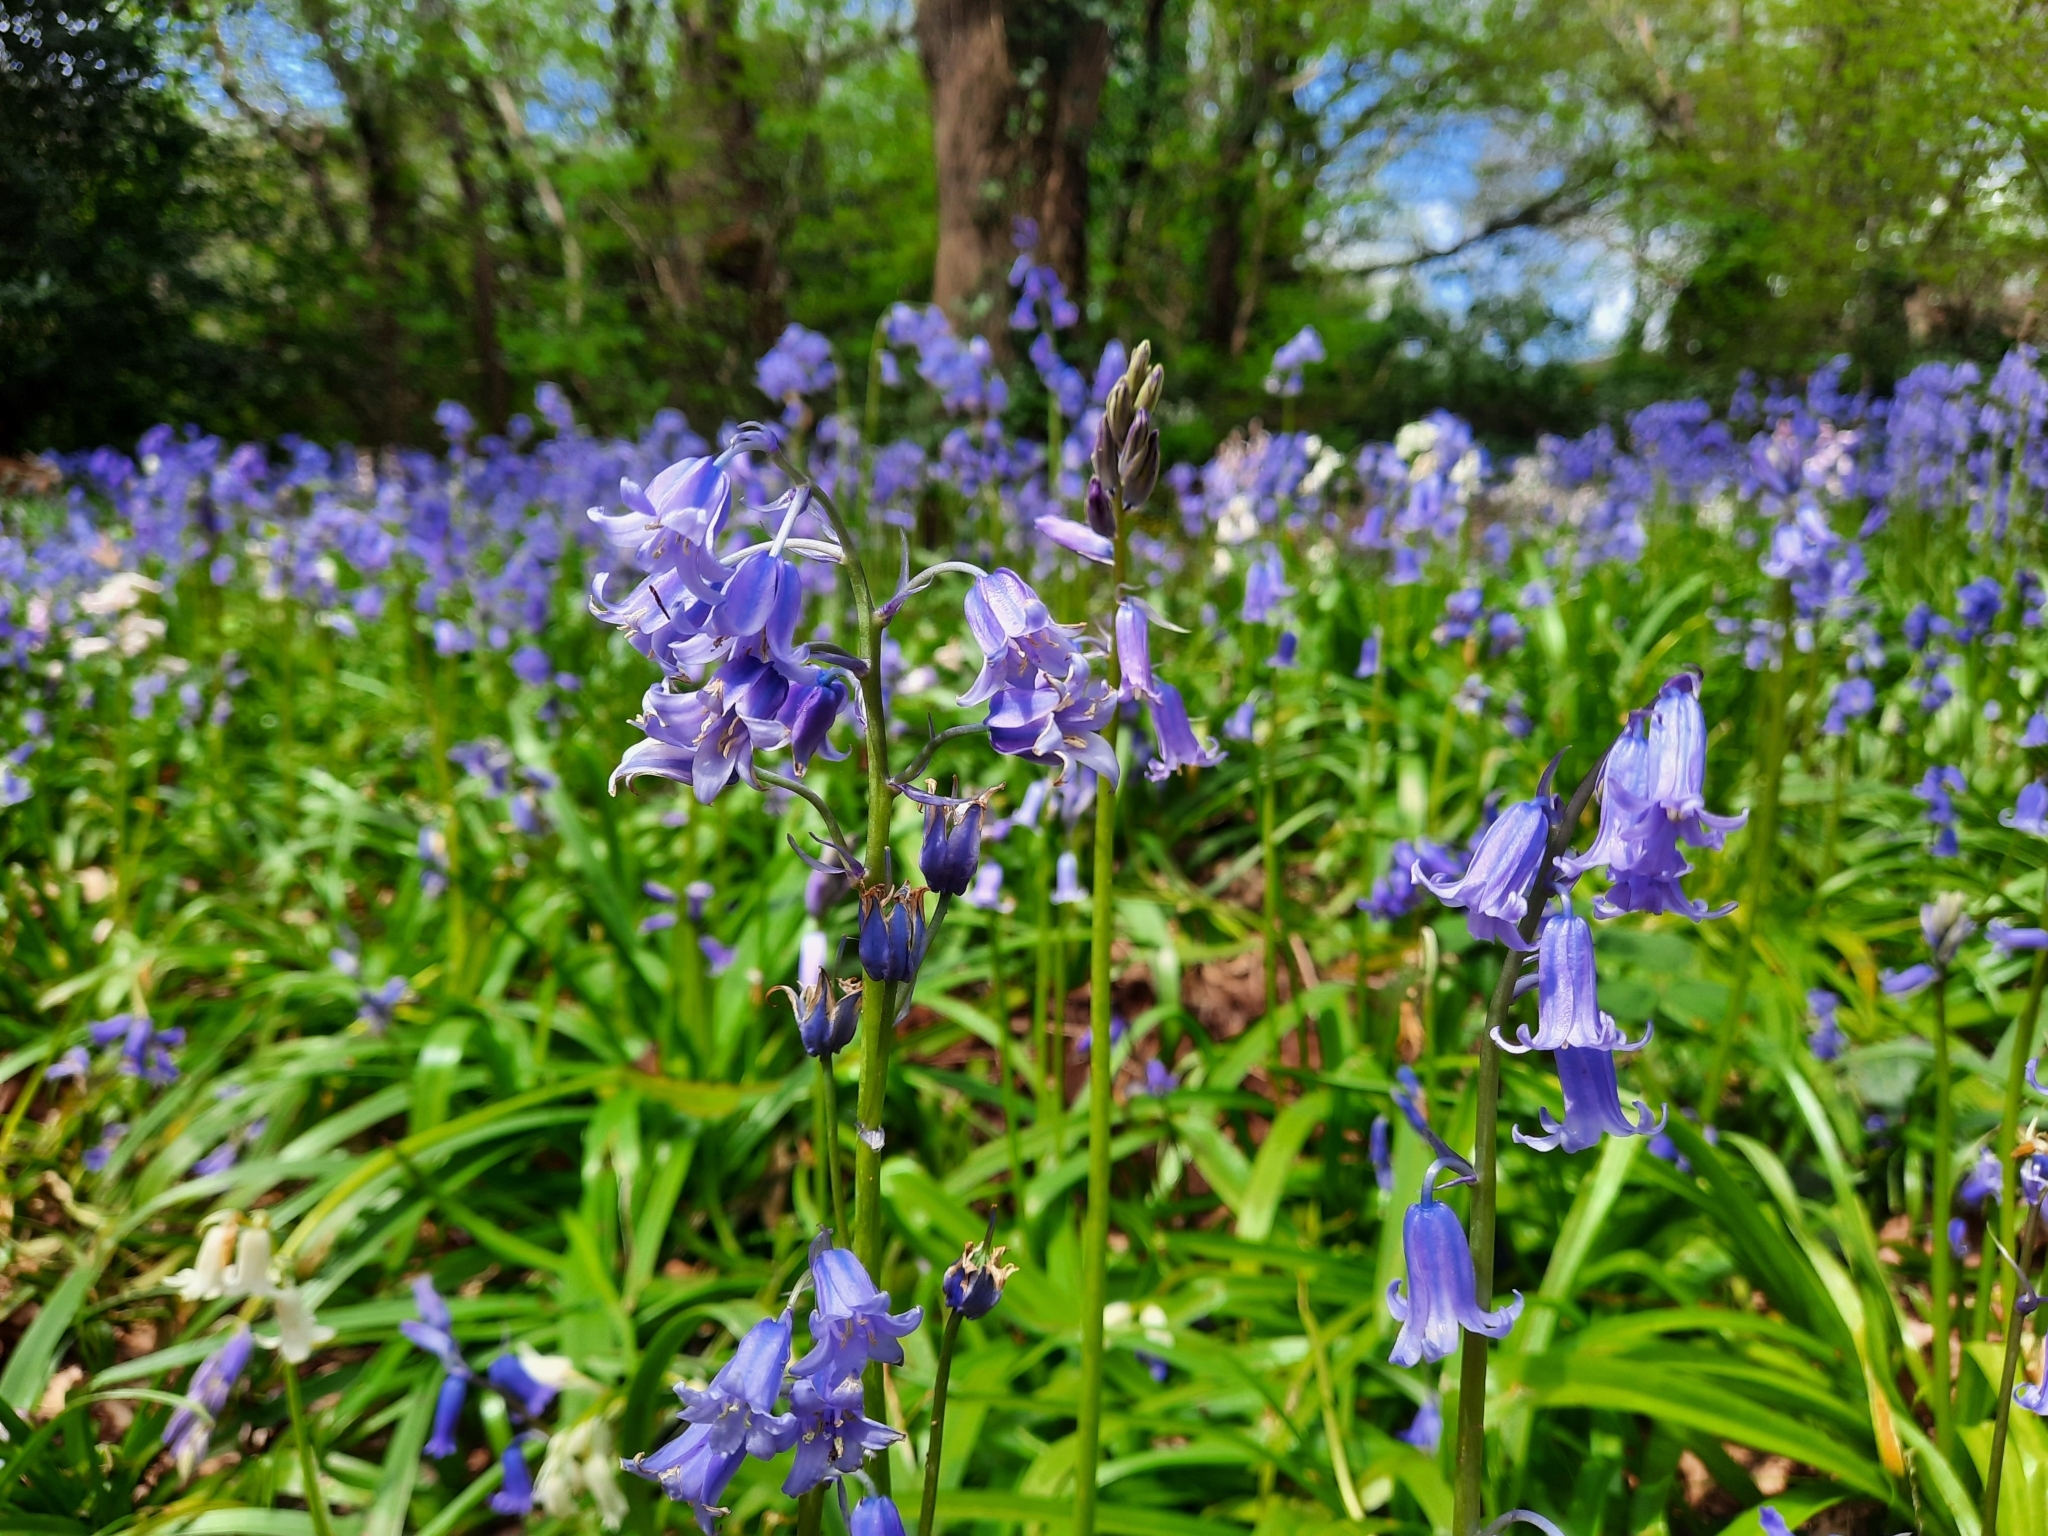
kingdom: Plantae
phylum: Tracheophyta
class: Liliopsida
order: Asparagales
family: Asparagaceae
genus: Hyacinthoides
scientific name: Hyacinthoides non-scripta
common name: Bluebell
